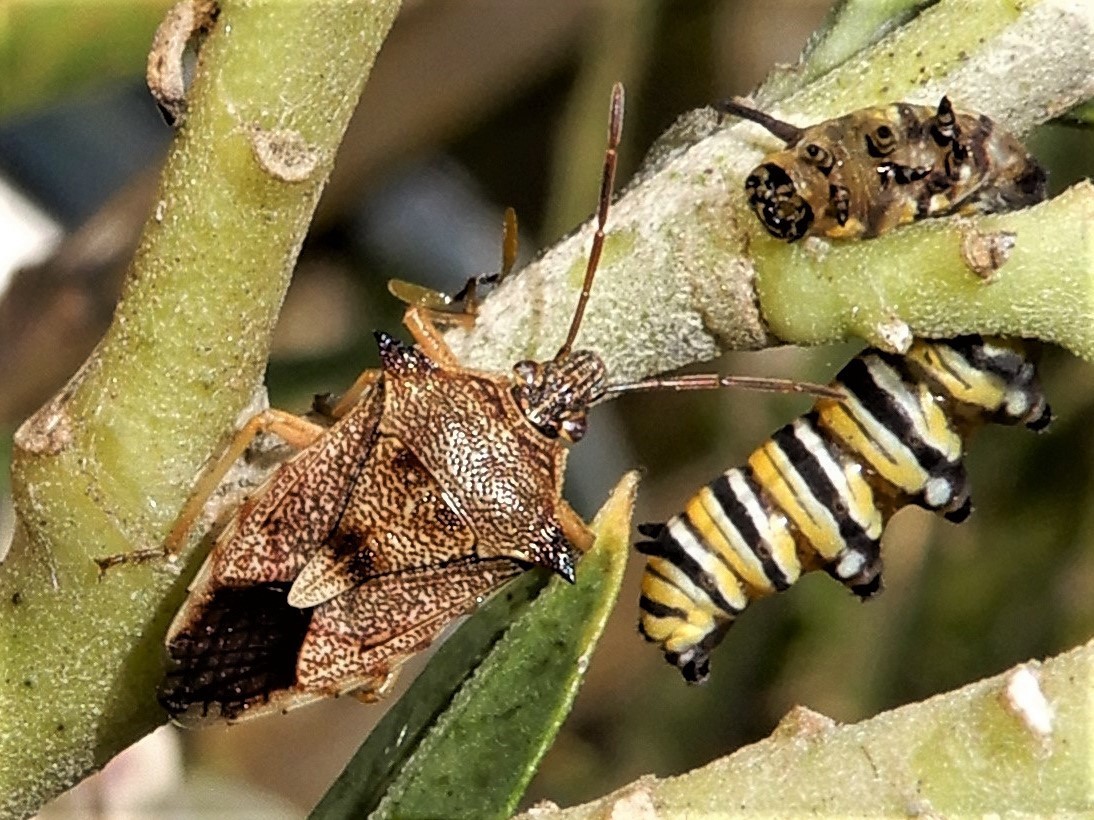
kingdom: Animalia
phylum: Arthropoda
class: Insecta
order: Hemiptera
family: Pentatomidae
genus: Oechalia
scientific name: Oechalia schellenbergii
